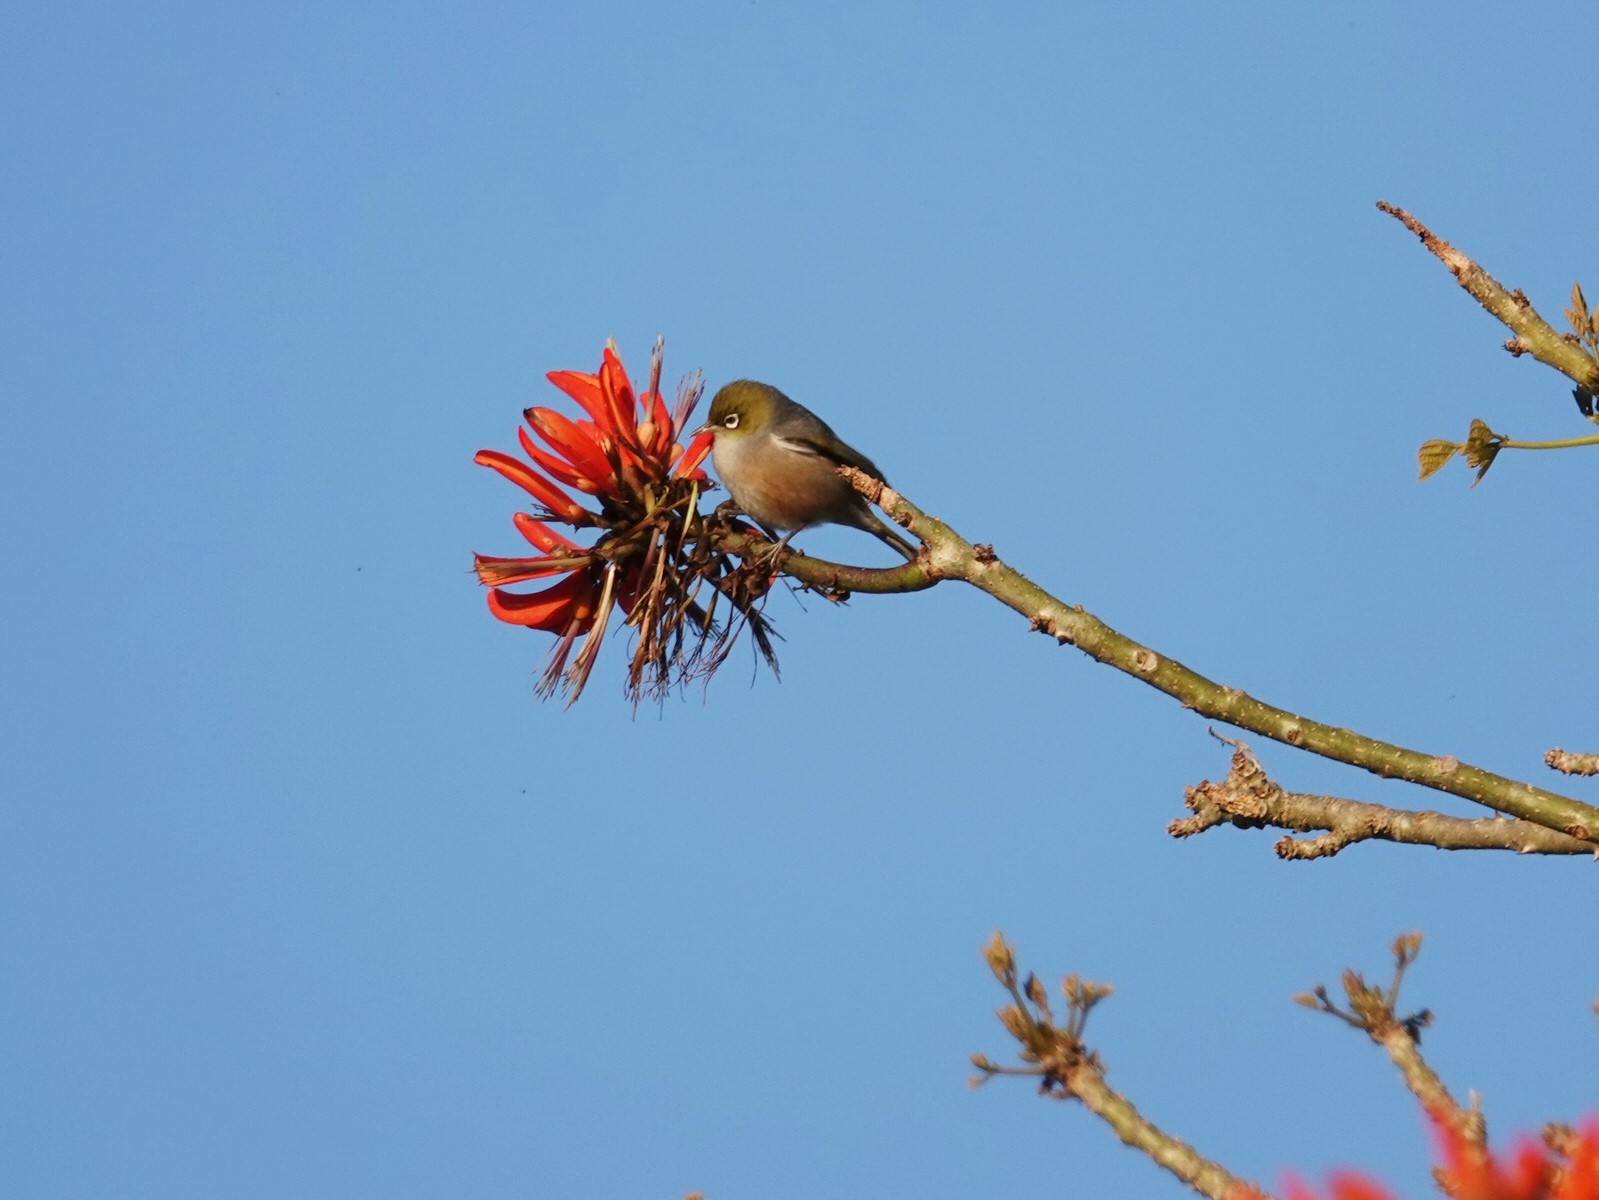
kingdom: Animalia
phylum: Chordata
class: Aves
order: Passeriformes
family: Zosteropidae
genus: Zosterops
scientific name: Zosterops lateralis
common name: Silvereye
